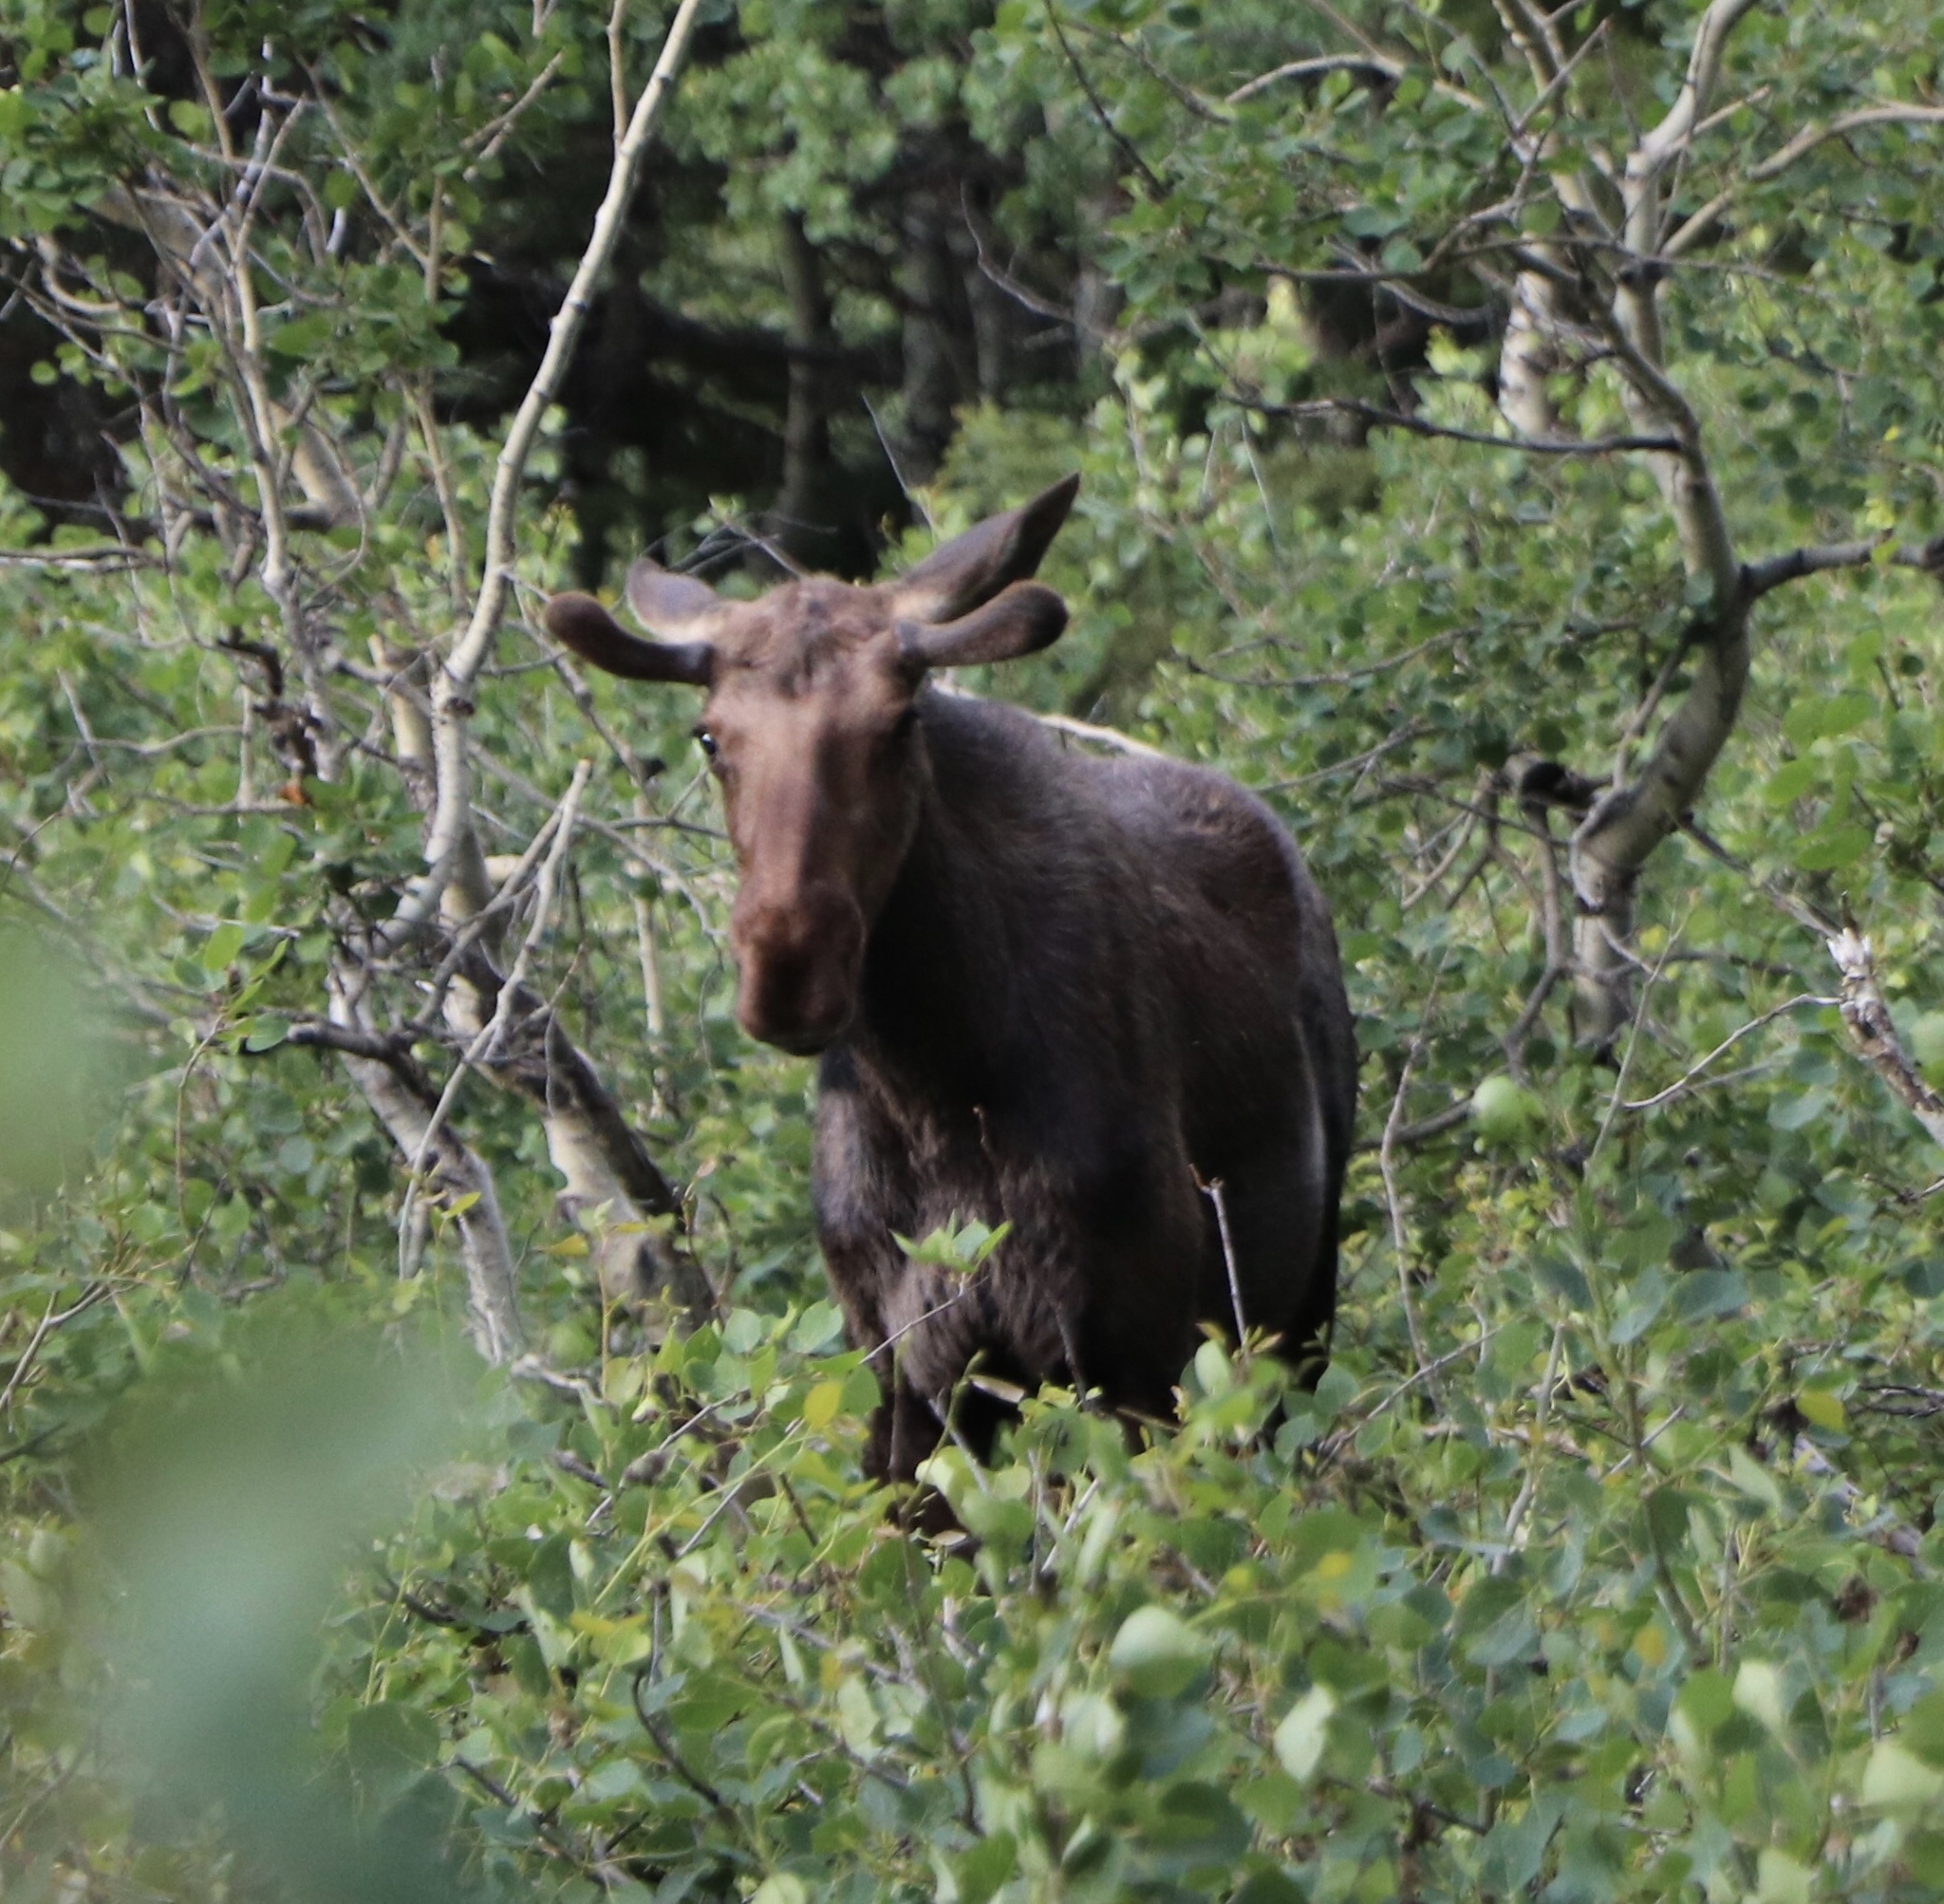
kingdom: Animalia
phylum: Chordata
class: Mammalia
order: Artiodactyla
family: Cervidae
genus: Alces
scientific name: Alces alces
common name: Moose
